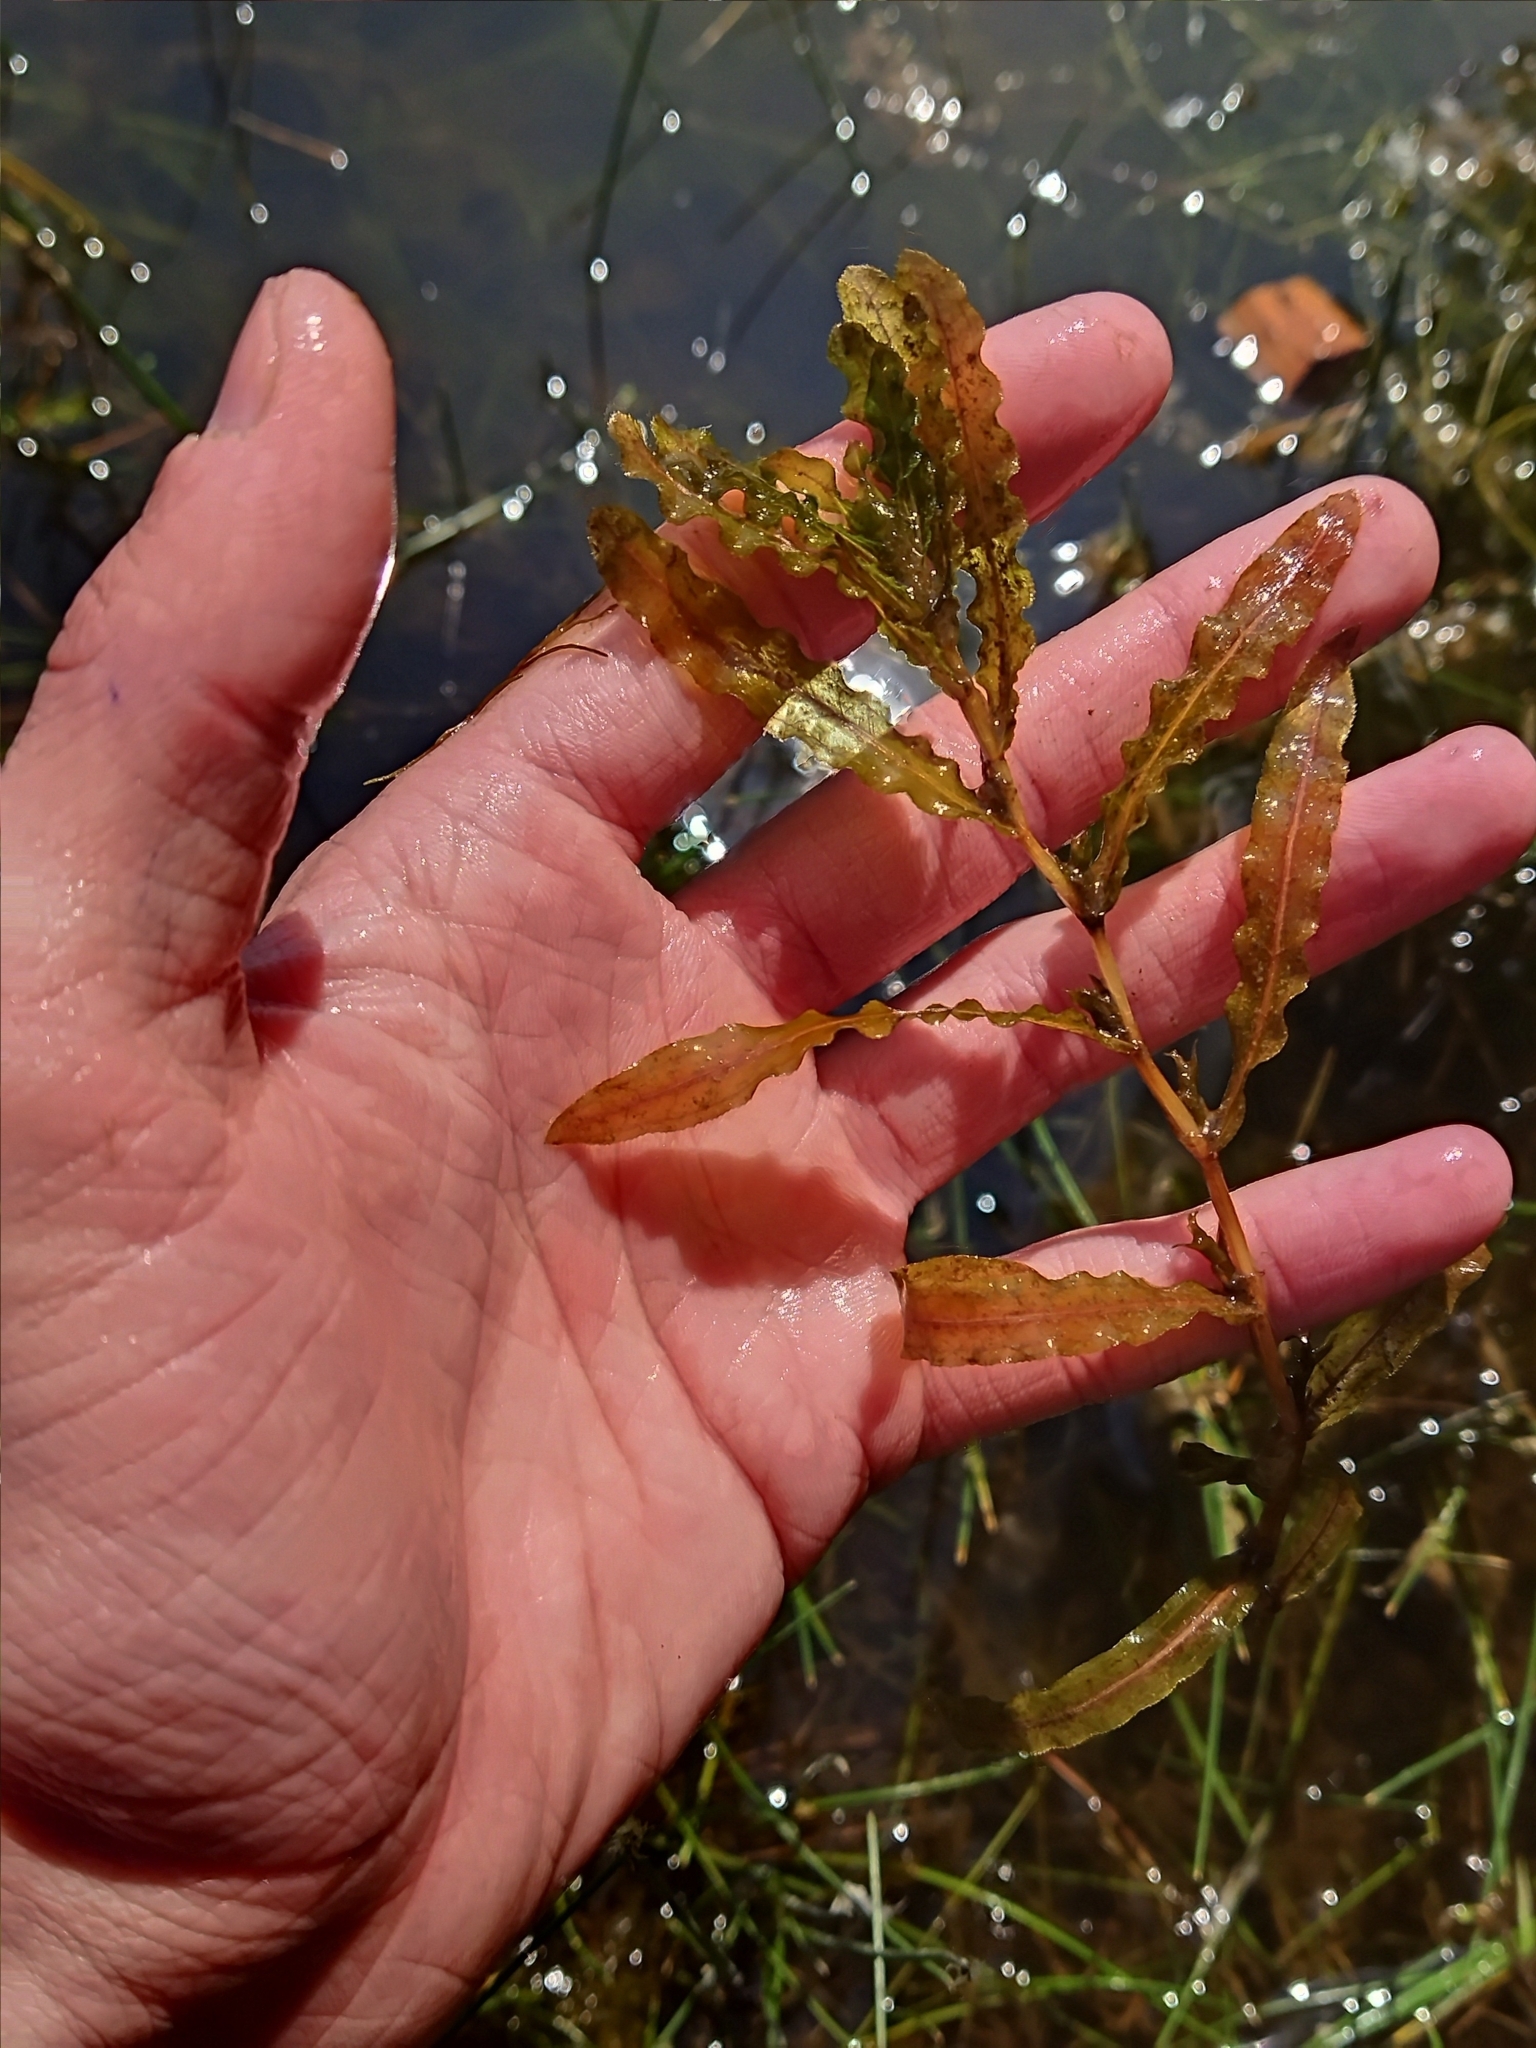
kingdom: Plantae
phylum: Tracheophyta
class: Liliopsida
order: Alismatales
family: Potamogetonaceae
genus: Potamogeton
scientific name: Potamogeton crispus
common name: Curled pondweed
